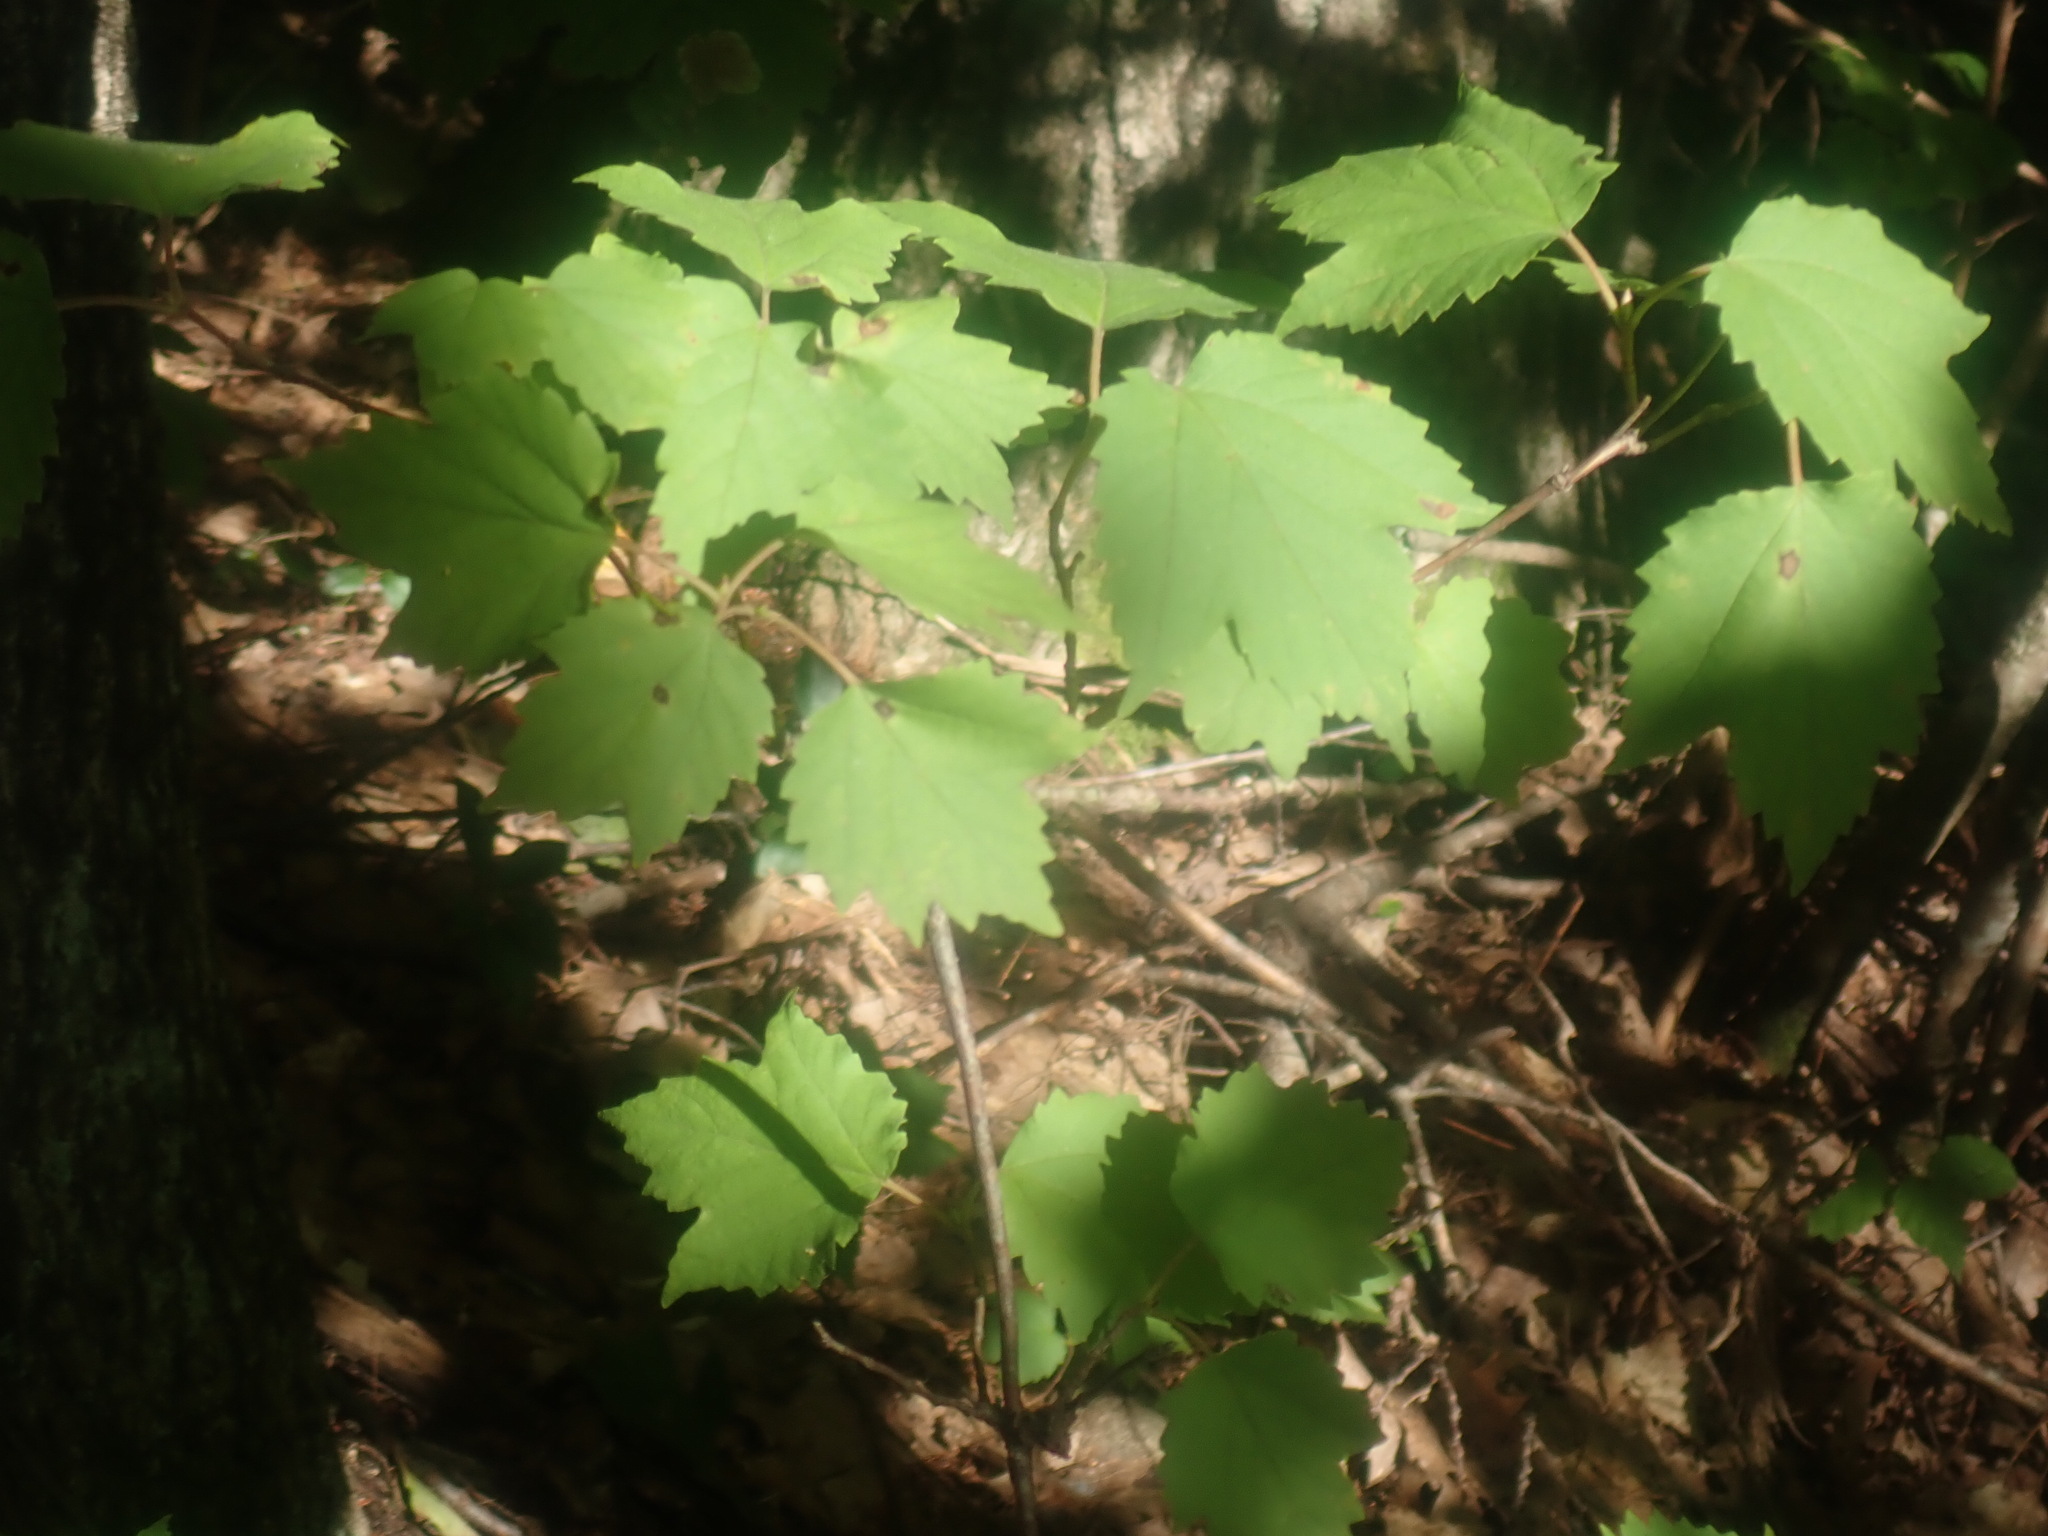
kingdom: Plantae
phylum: Tracheophyta
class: Magnoliopsida
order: Dipsacales
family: Viburnaceae
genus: Viburnum
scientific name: Viburnum acerifolium
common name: Dockmackie
